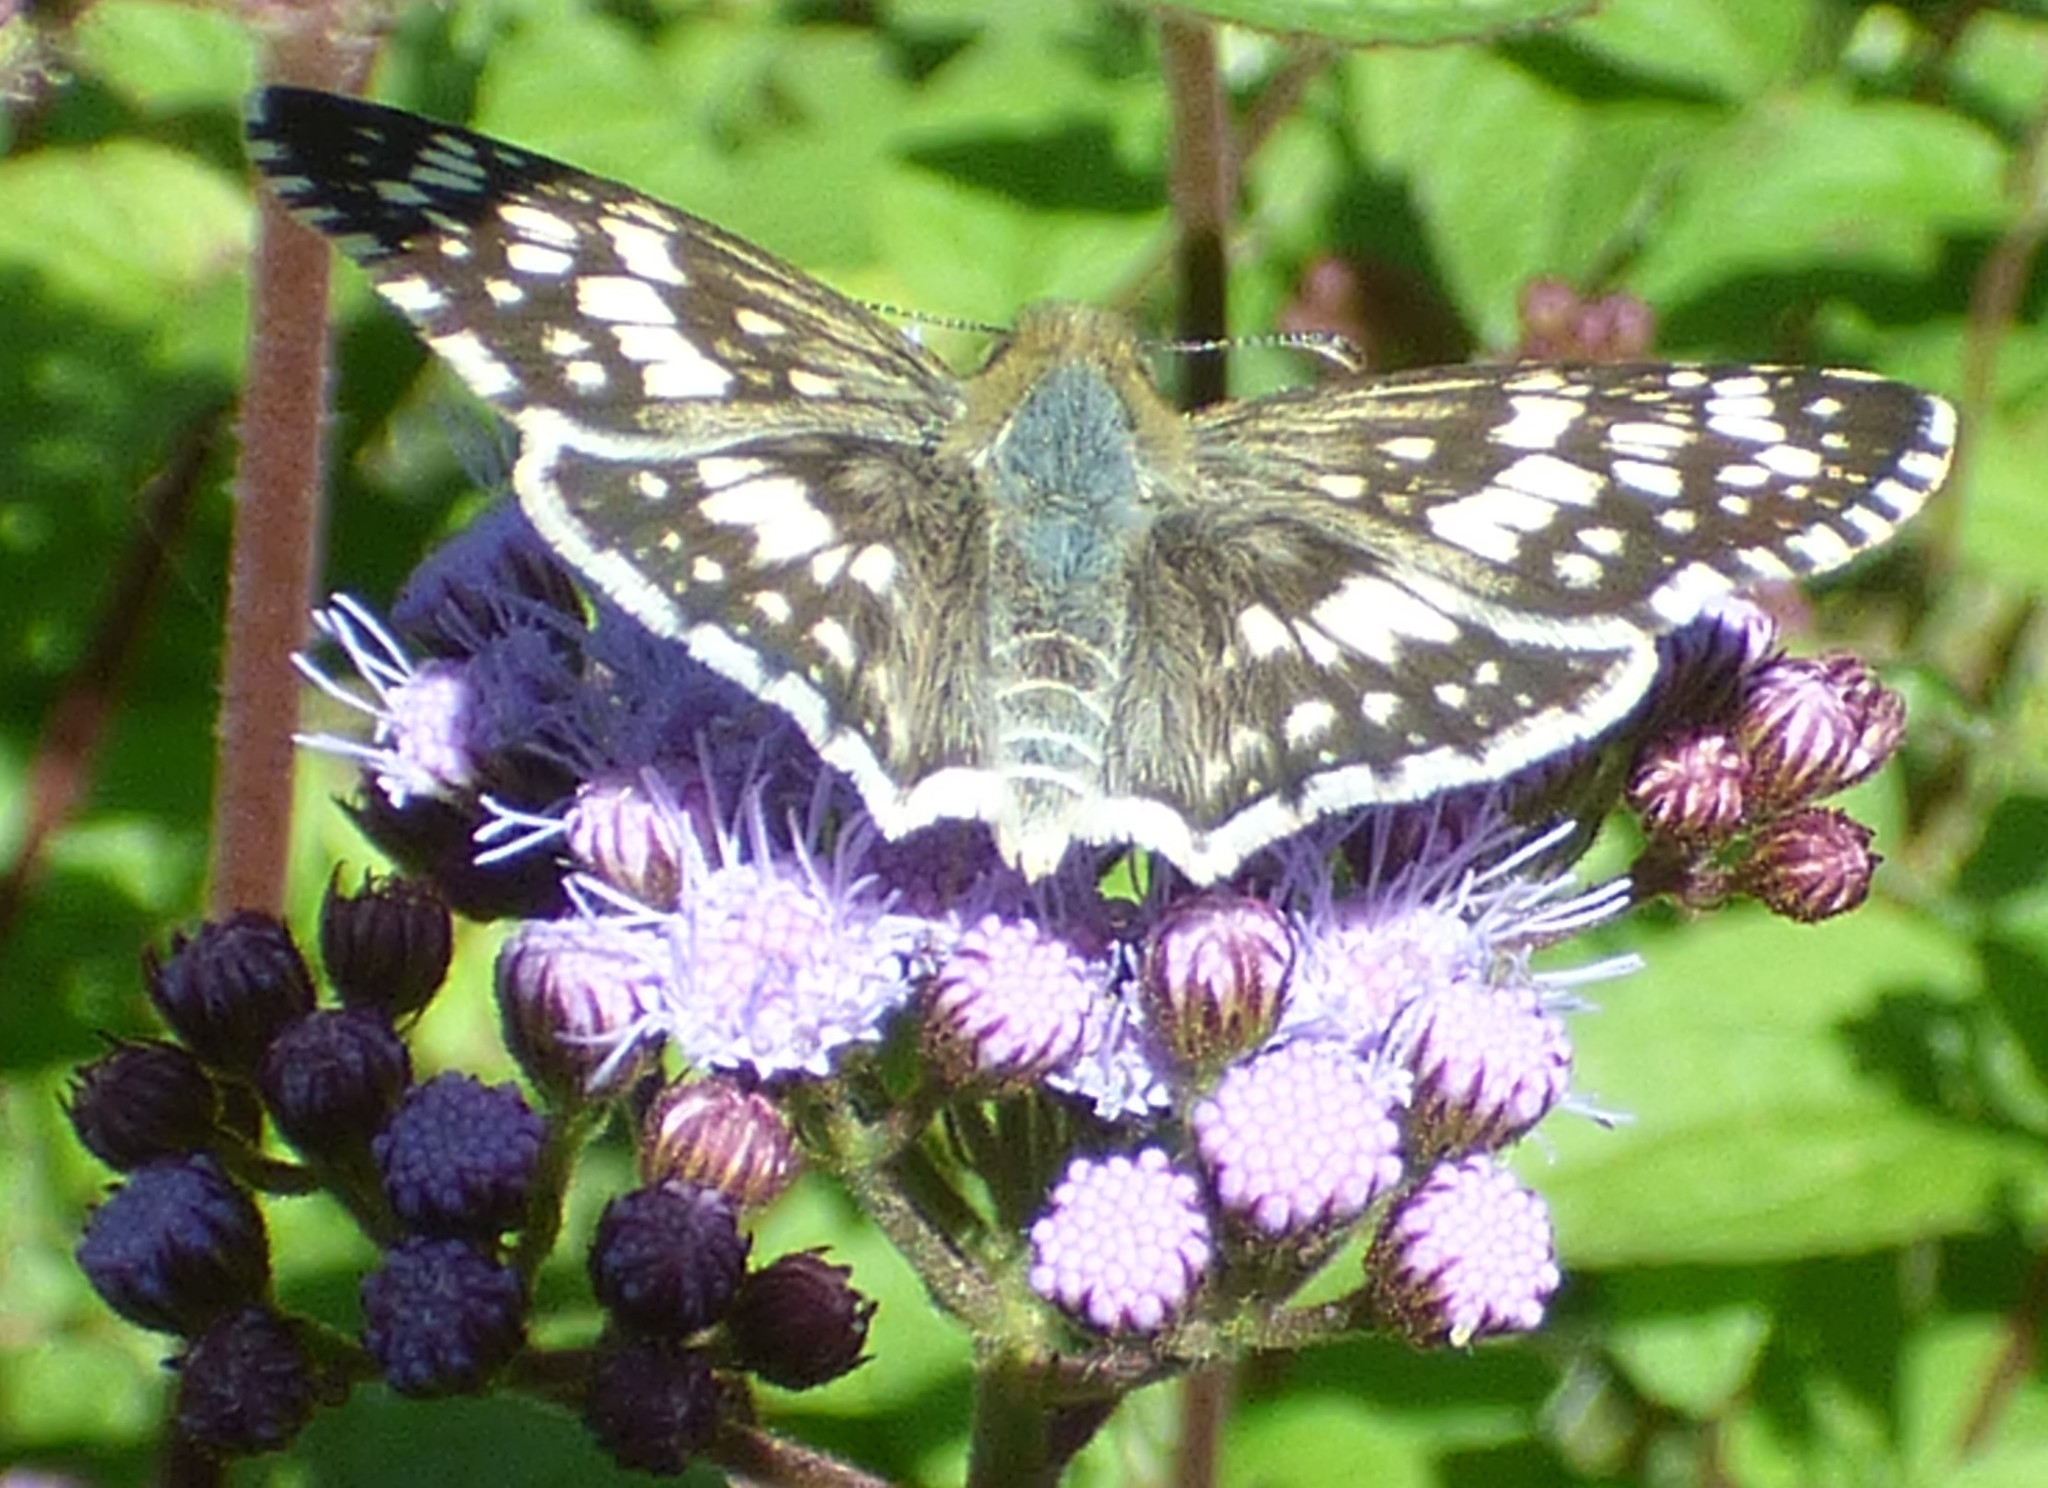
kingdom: Animalia
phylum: Arthropoda
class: Insecta
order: Lepidoptera
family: Hesperiidae
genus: Burnsius
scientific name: Burnsius
